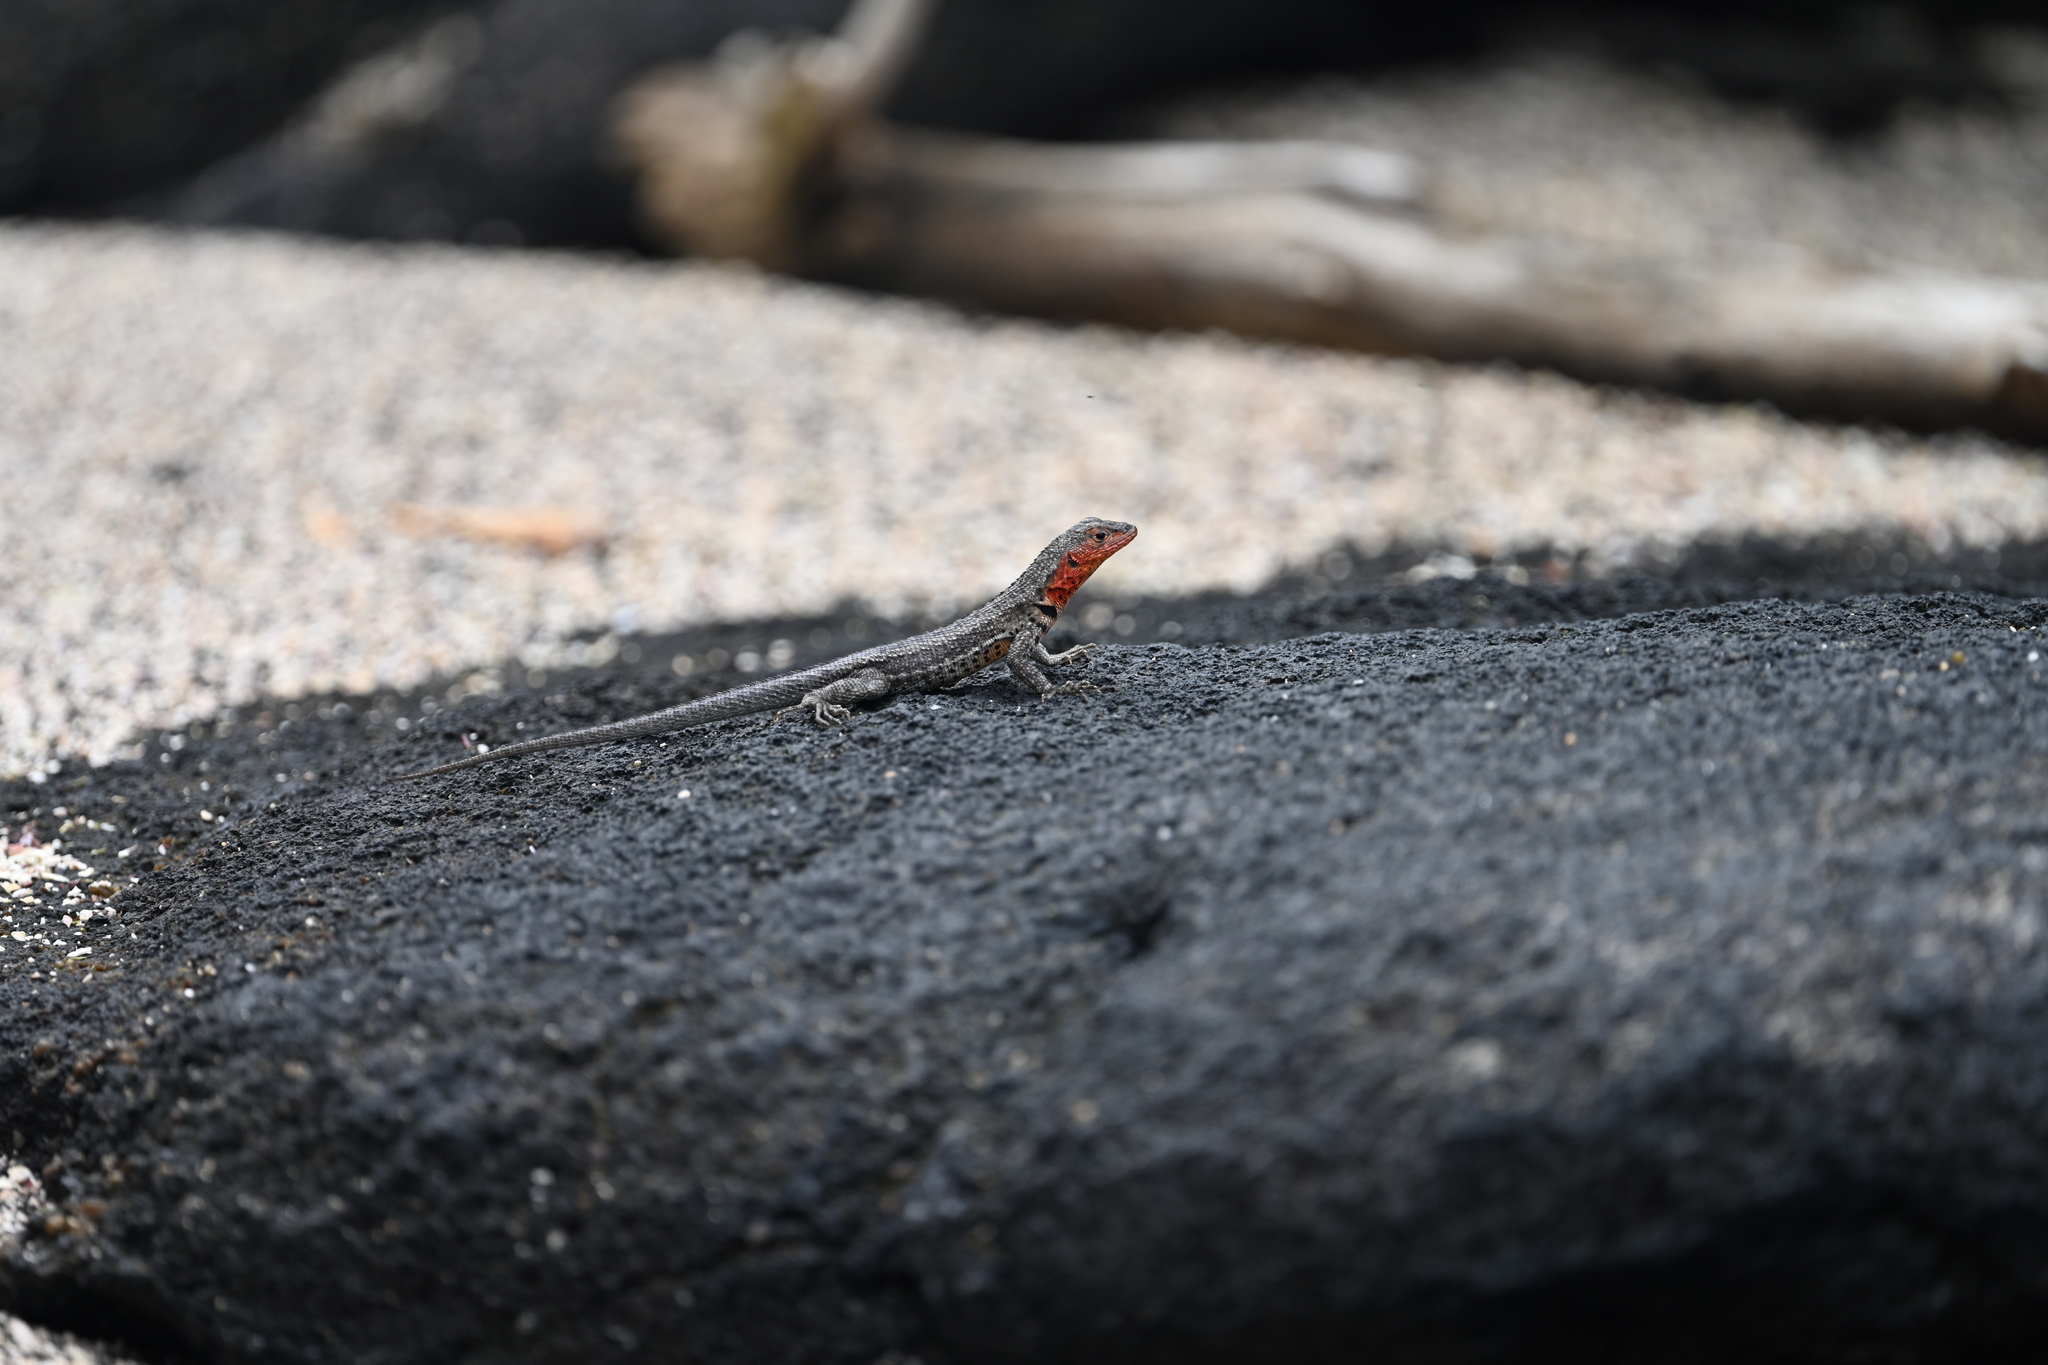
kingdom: Animalia
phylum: Chordata
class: Squamata
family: Tropiduridae
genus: Microlophus
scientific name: Microlophus albemarlensis
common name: Galapagos lava lizard
